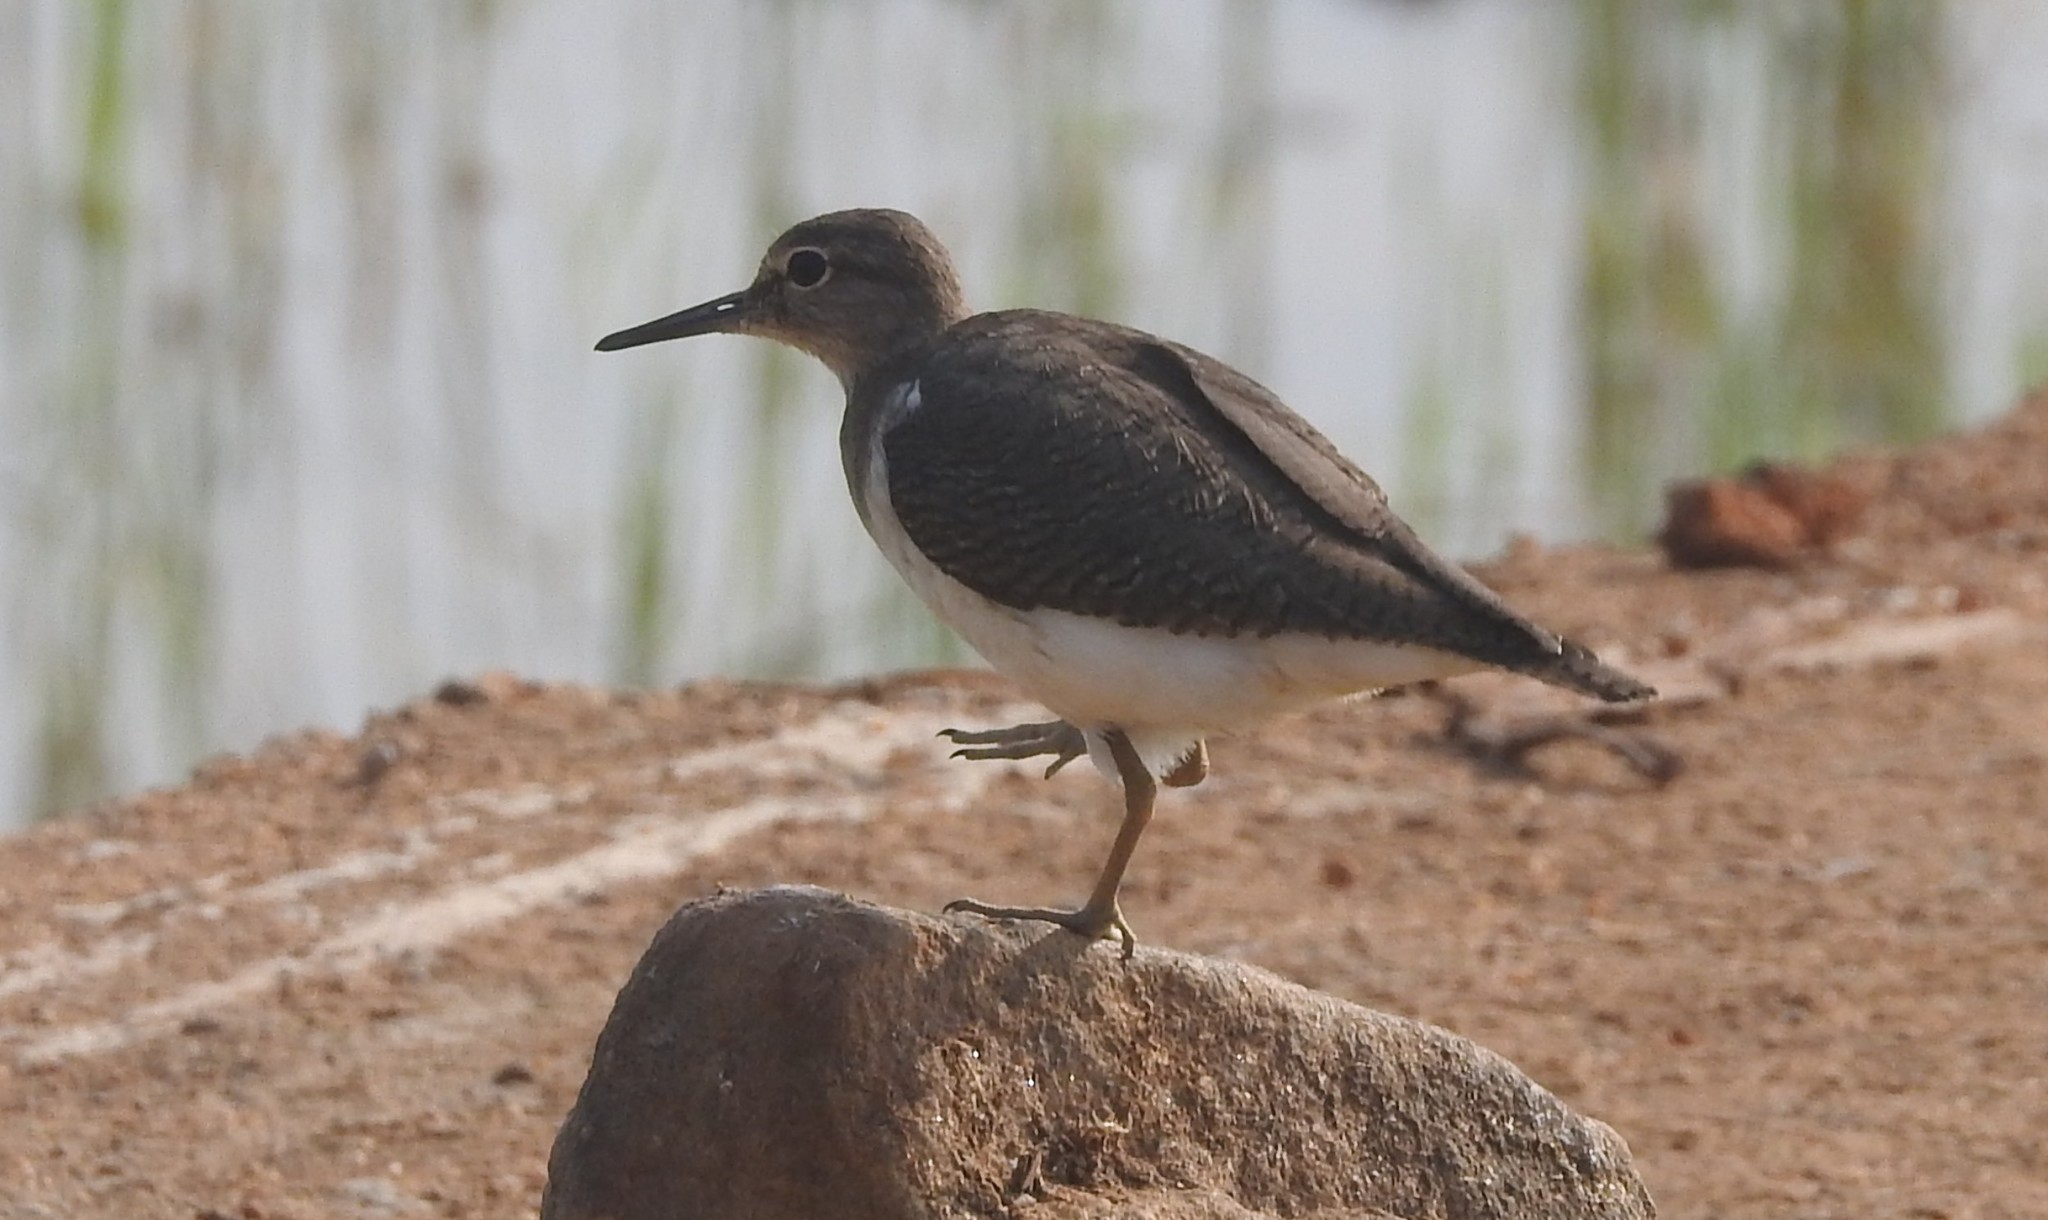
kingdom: Animalia
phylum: Chordata
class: Aves
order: Charadriiformes
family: Scolopacidae
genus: Actitis
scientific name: Actitis hypoleucos
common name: Common sandpiper
